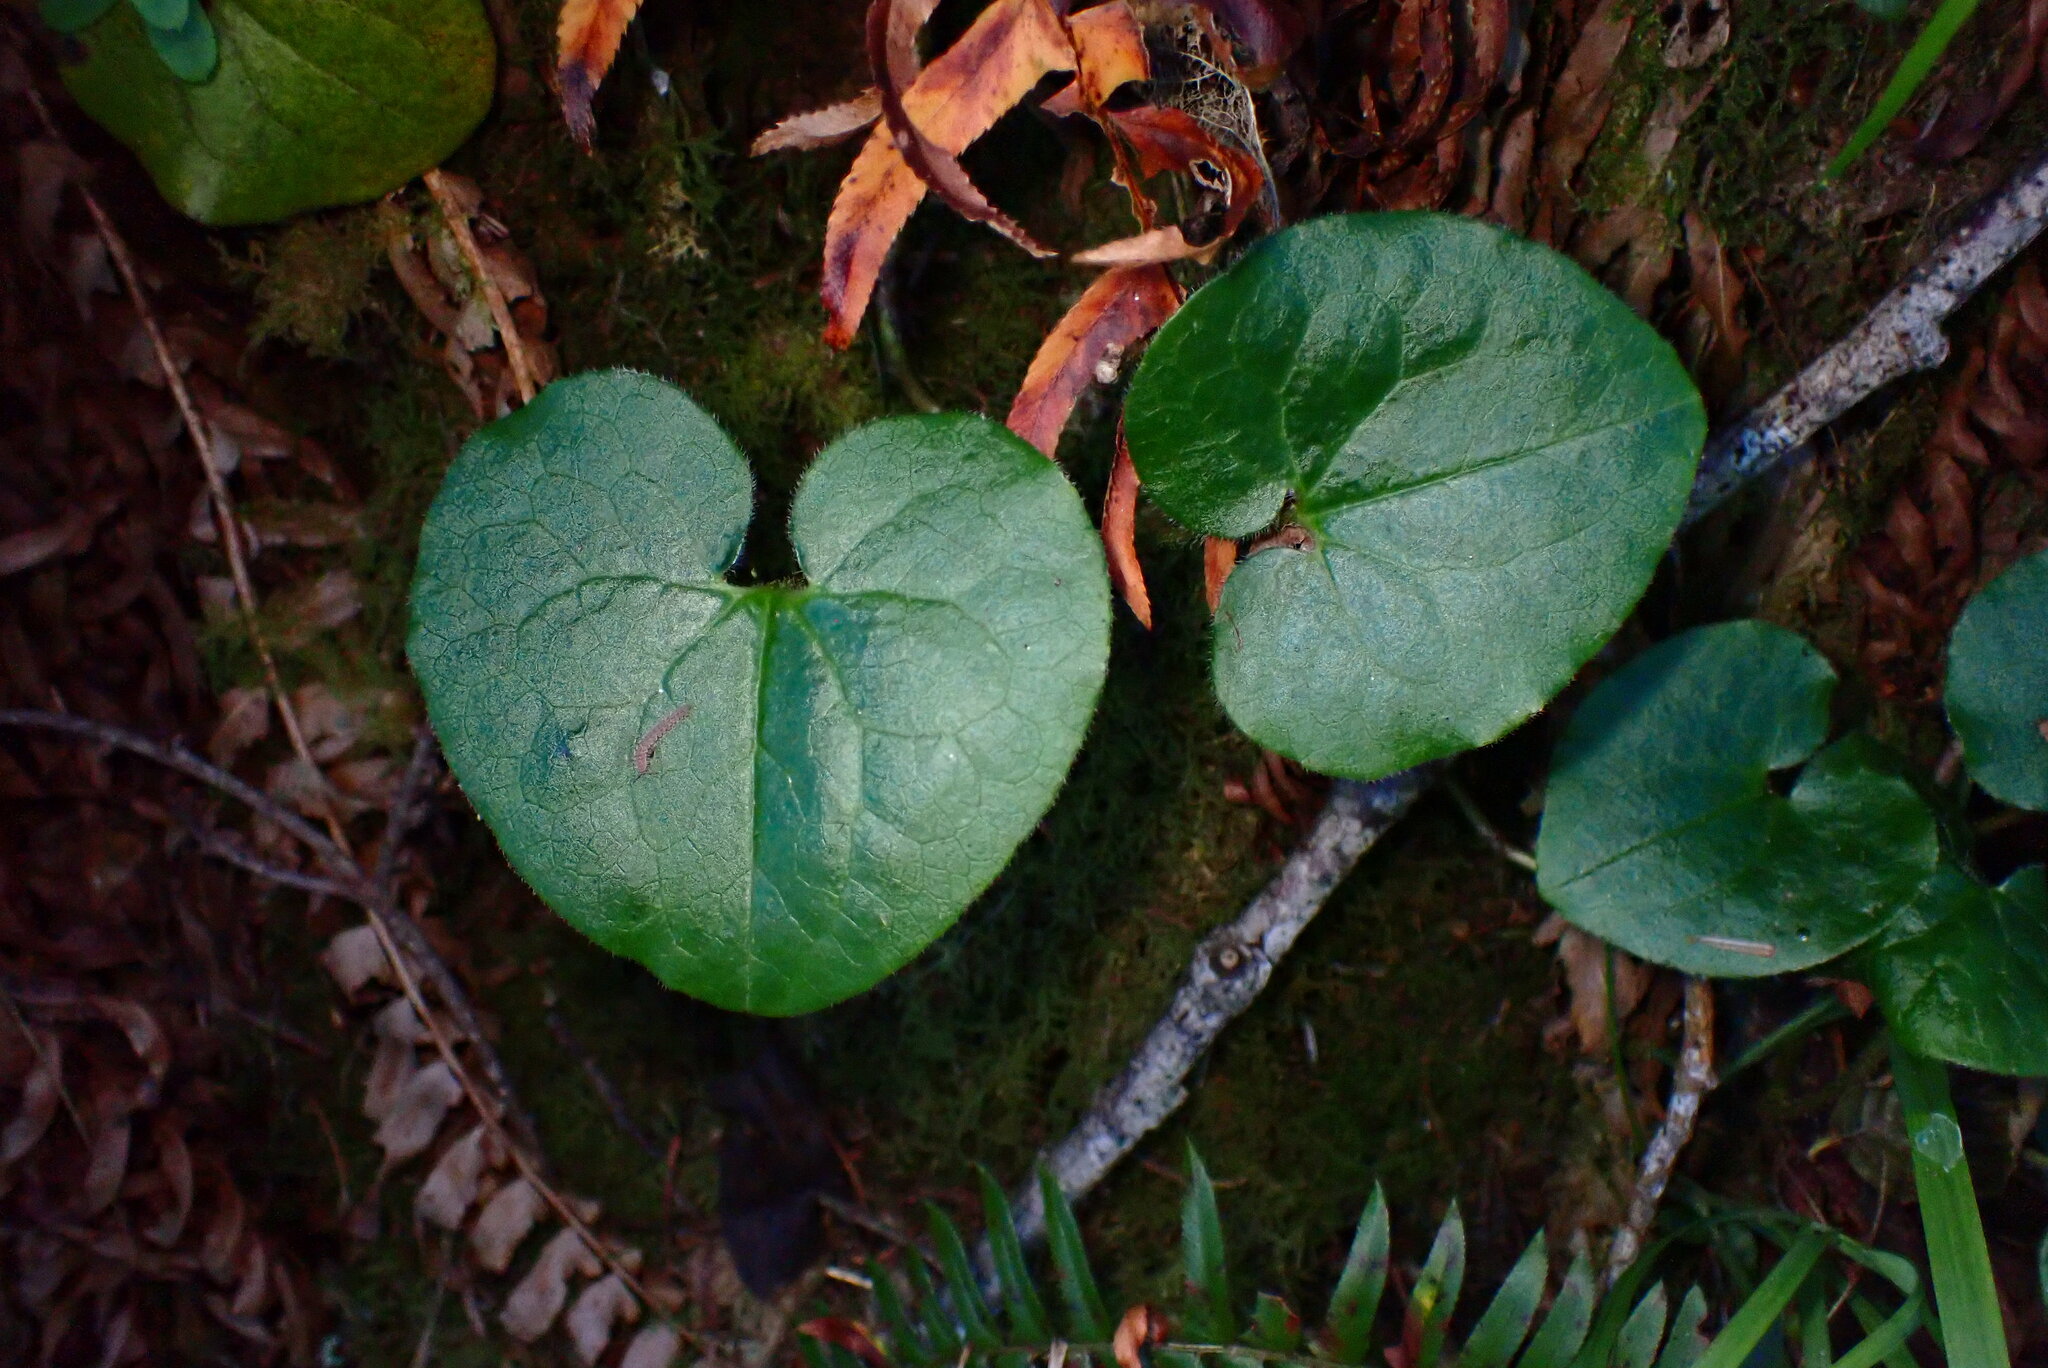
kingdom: Plantae
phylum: Tracheophyta
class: Magnoliopsida
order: Piperales
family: Aristolochiaceae
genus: Asarum
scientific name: Asarum caudatum
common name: Wild ginger
